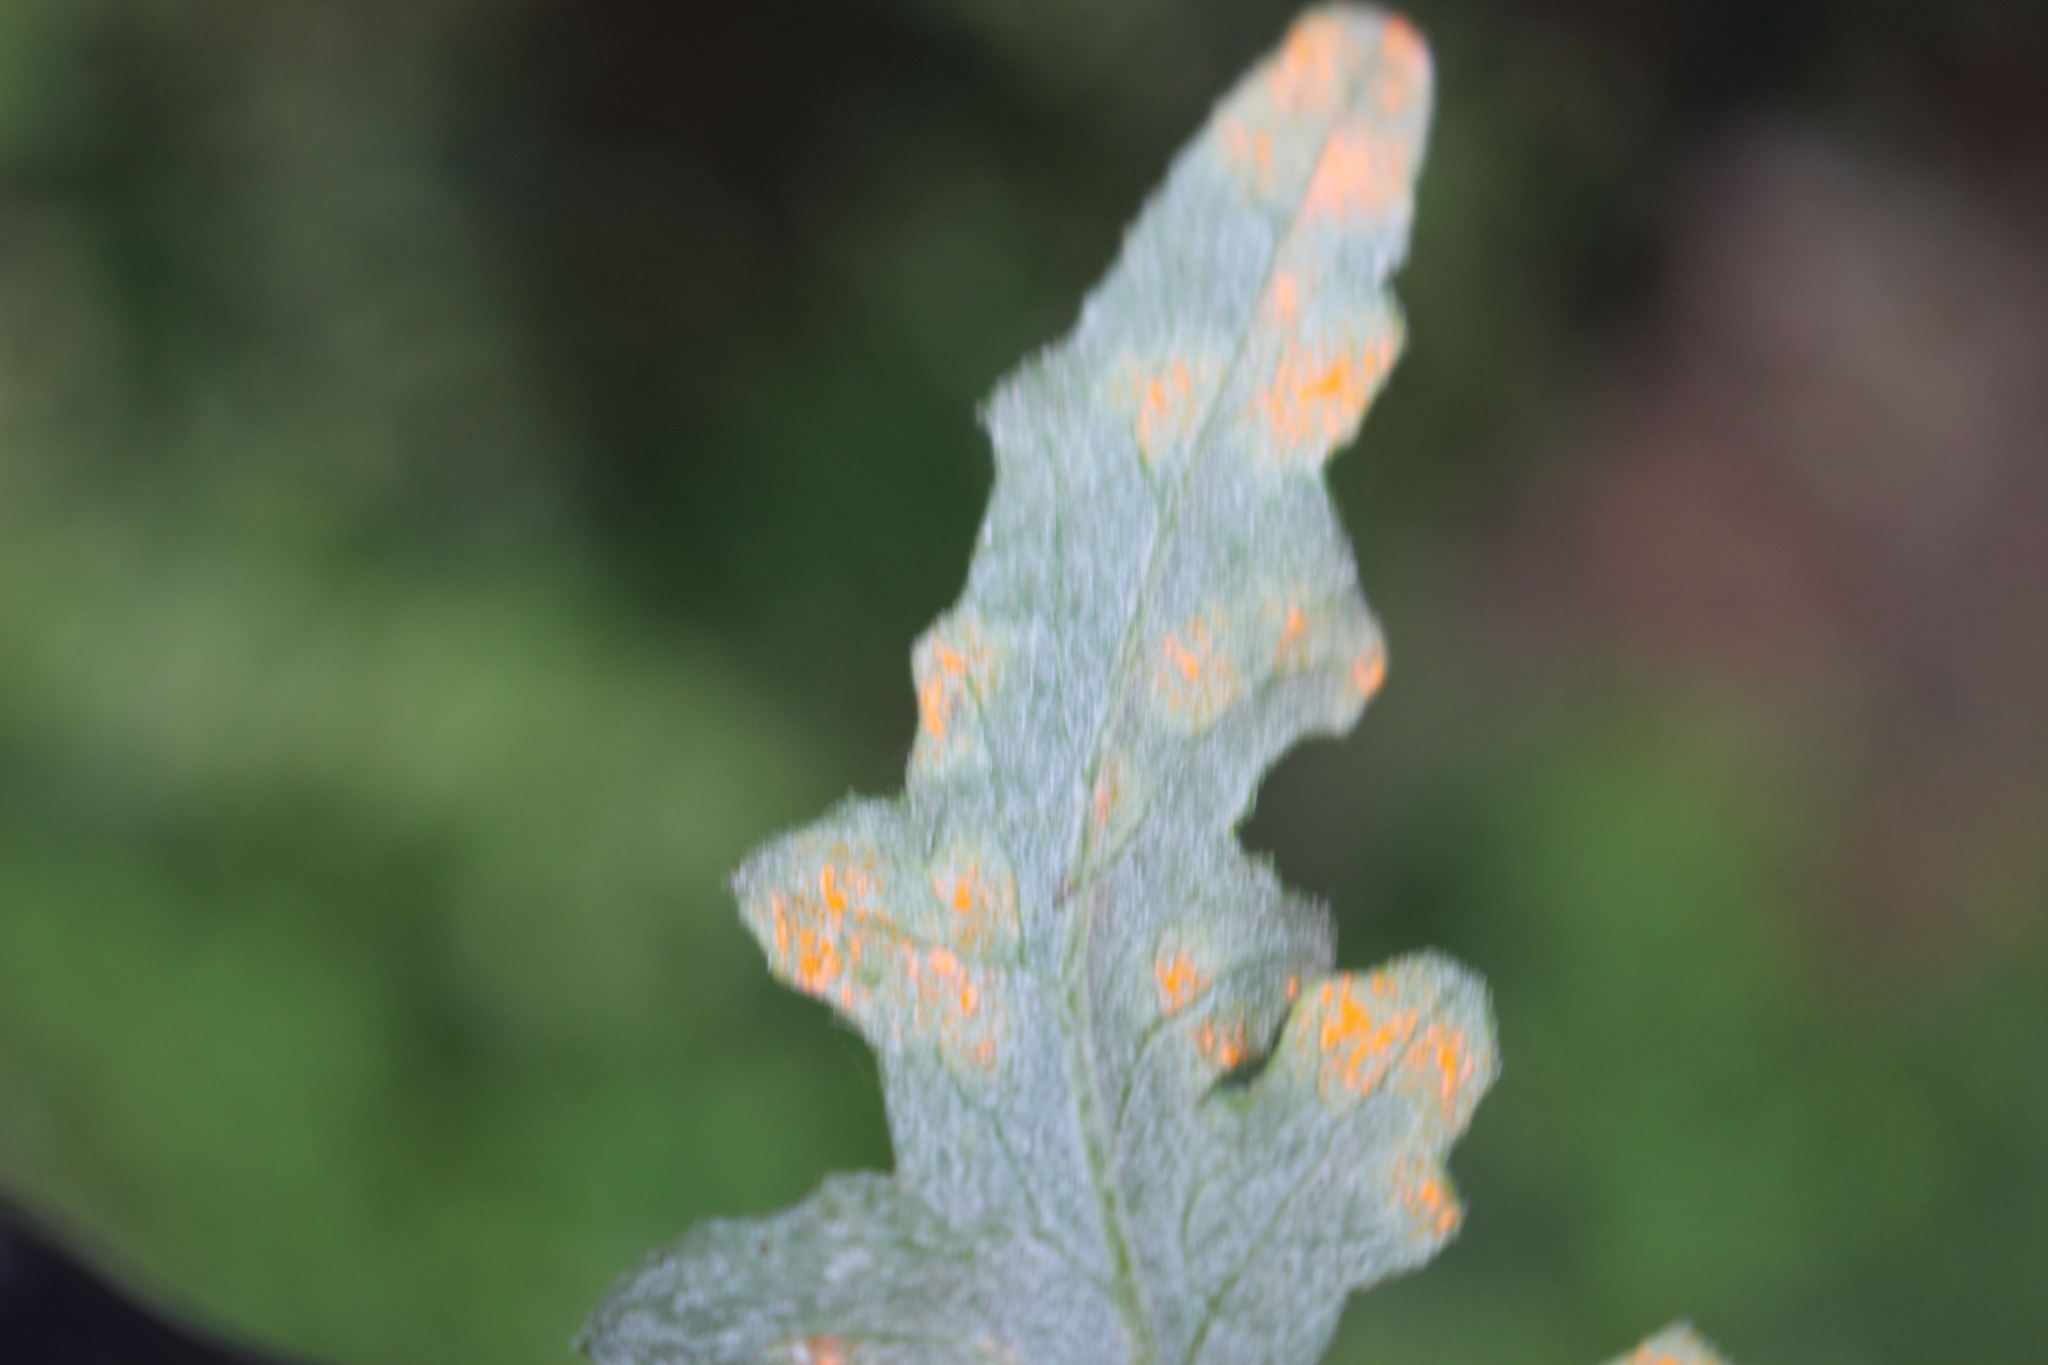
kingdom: Plantae
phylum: Tracheophyta
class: Magnoliopsida
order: Asterales
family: Asteraceae
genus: Senecio
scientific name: Senecio glomeratus
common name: Cutleaf burnweed
